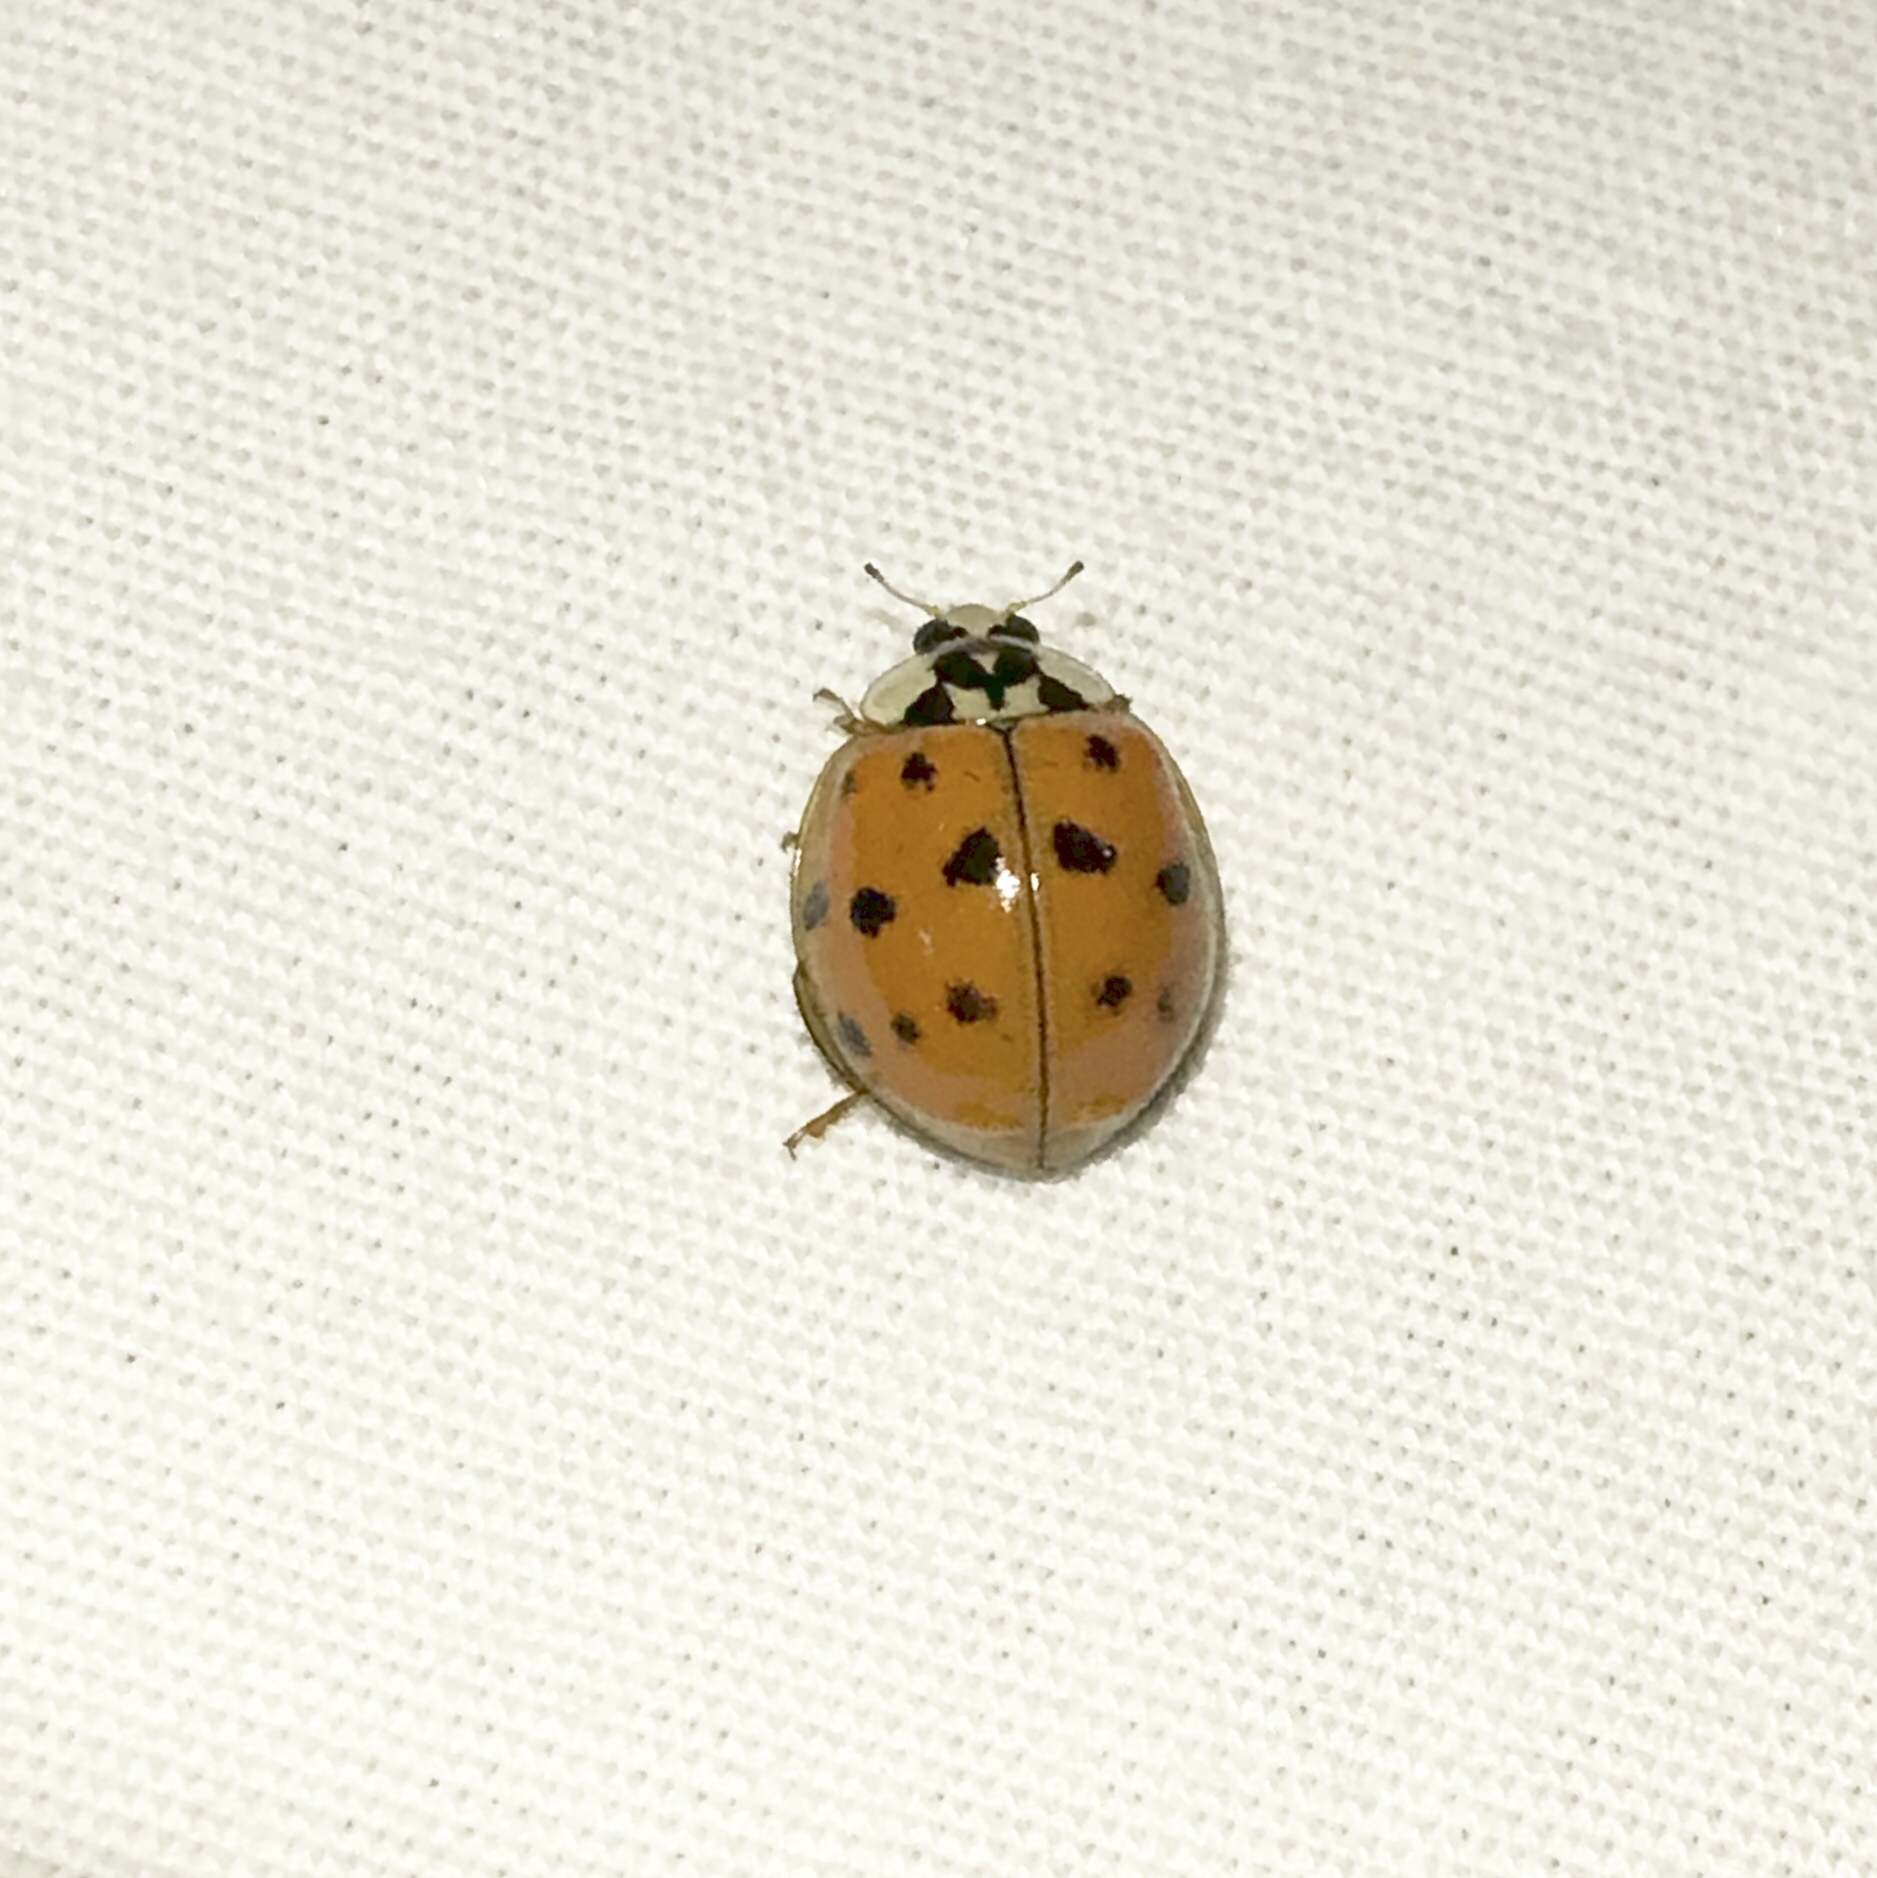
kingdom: Animalia
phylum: Arthropoda
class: Insecta
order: Coleoptera
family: Coccinellidae
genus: Harmonia
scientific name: Harmonia axyridis
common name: Harlequin ladybird
